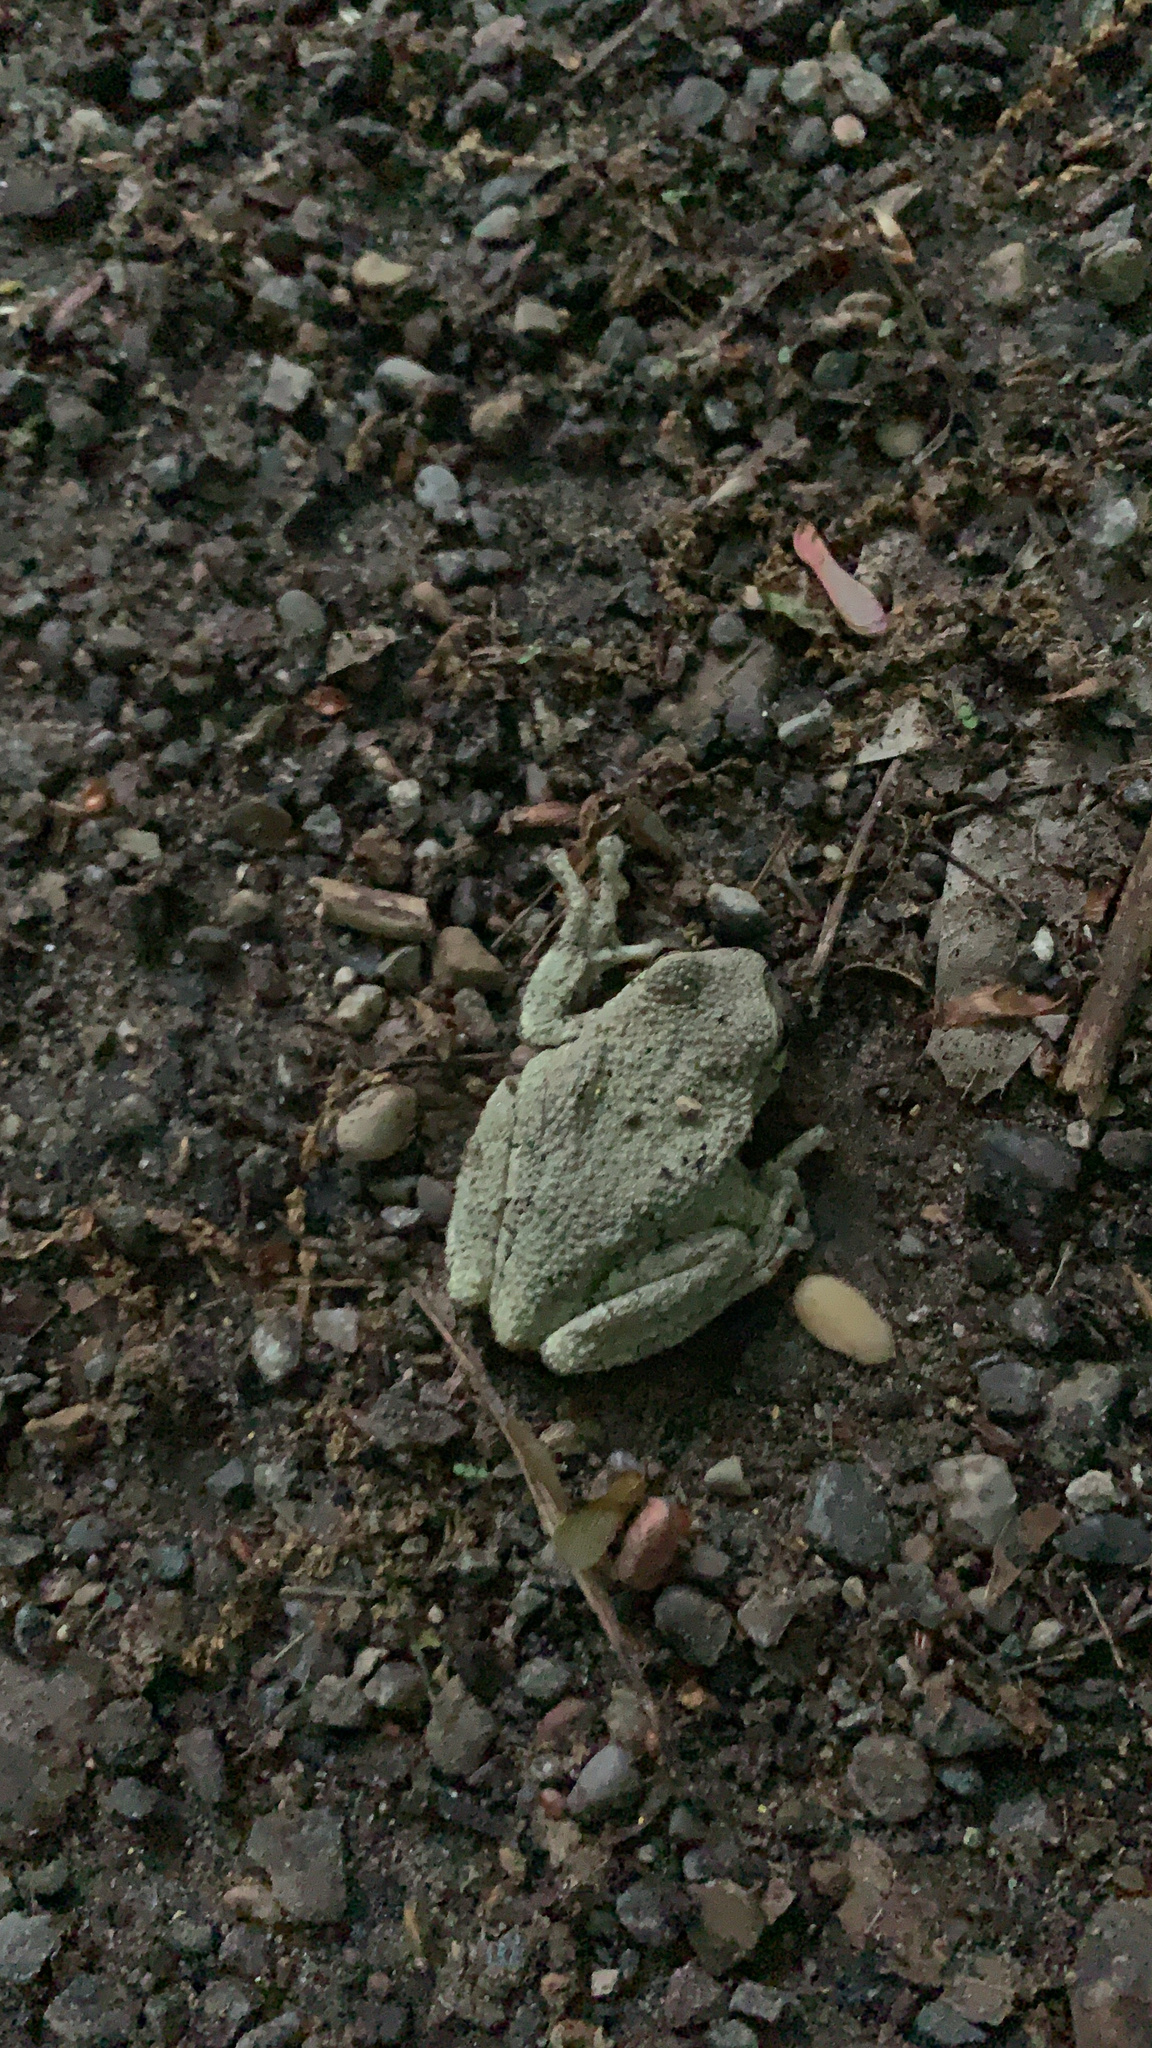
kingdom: Animalia
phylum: Chordata
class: Amphibia
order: Anura
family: Hylidae
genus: Hyla
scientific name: Hyla
